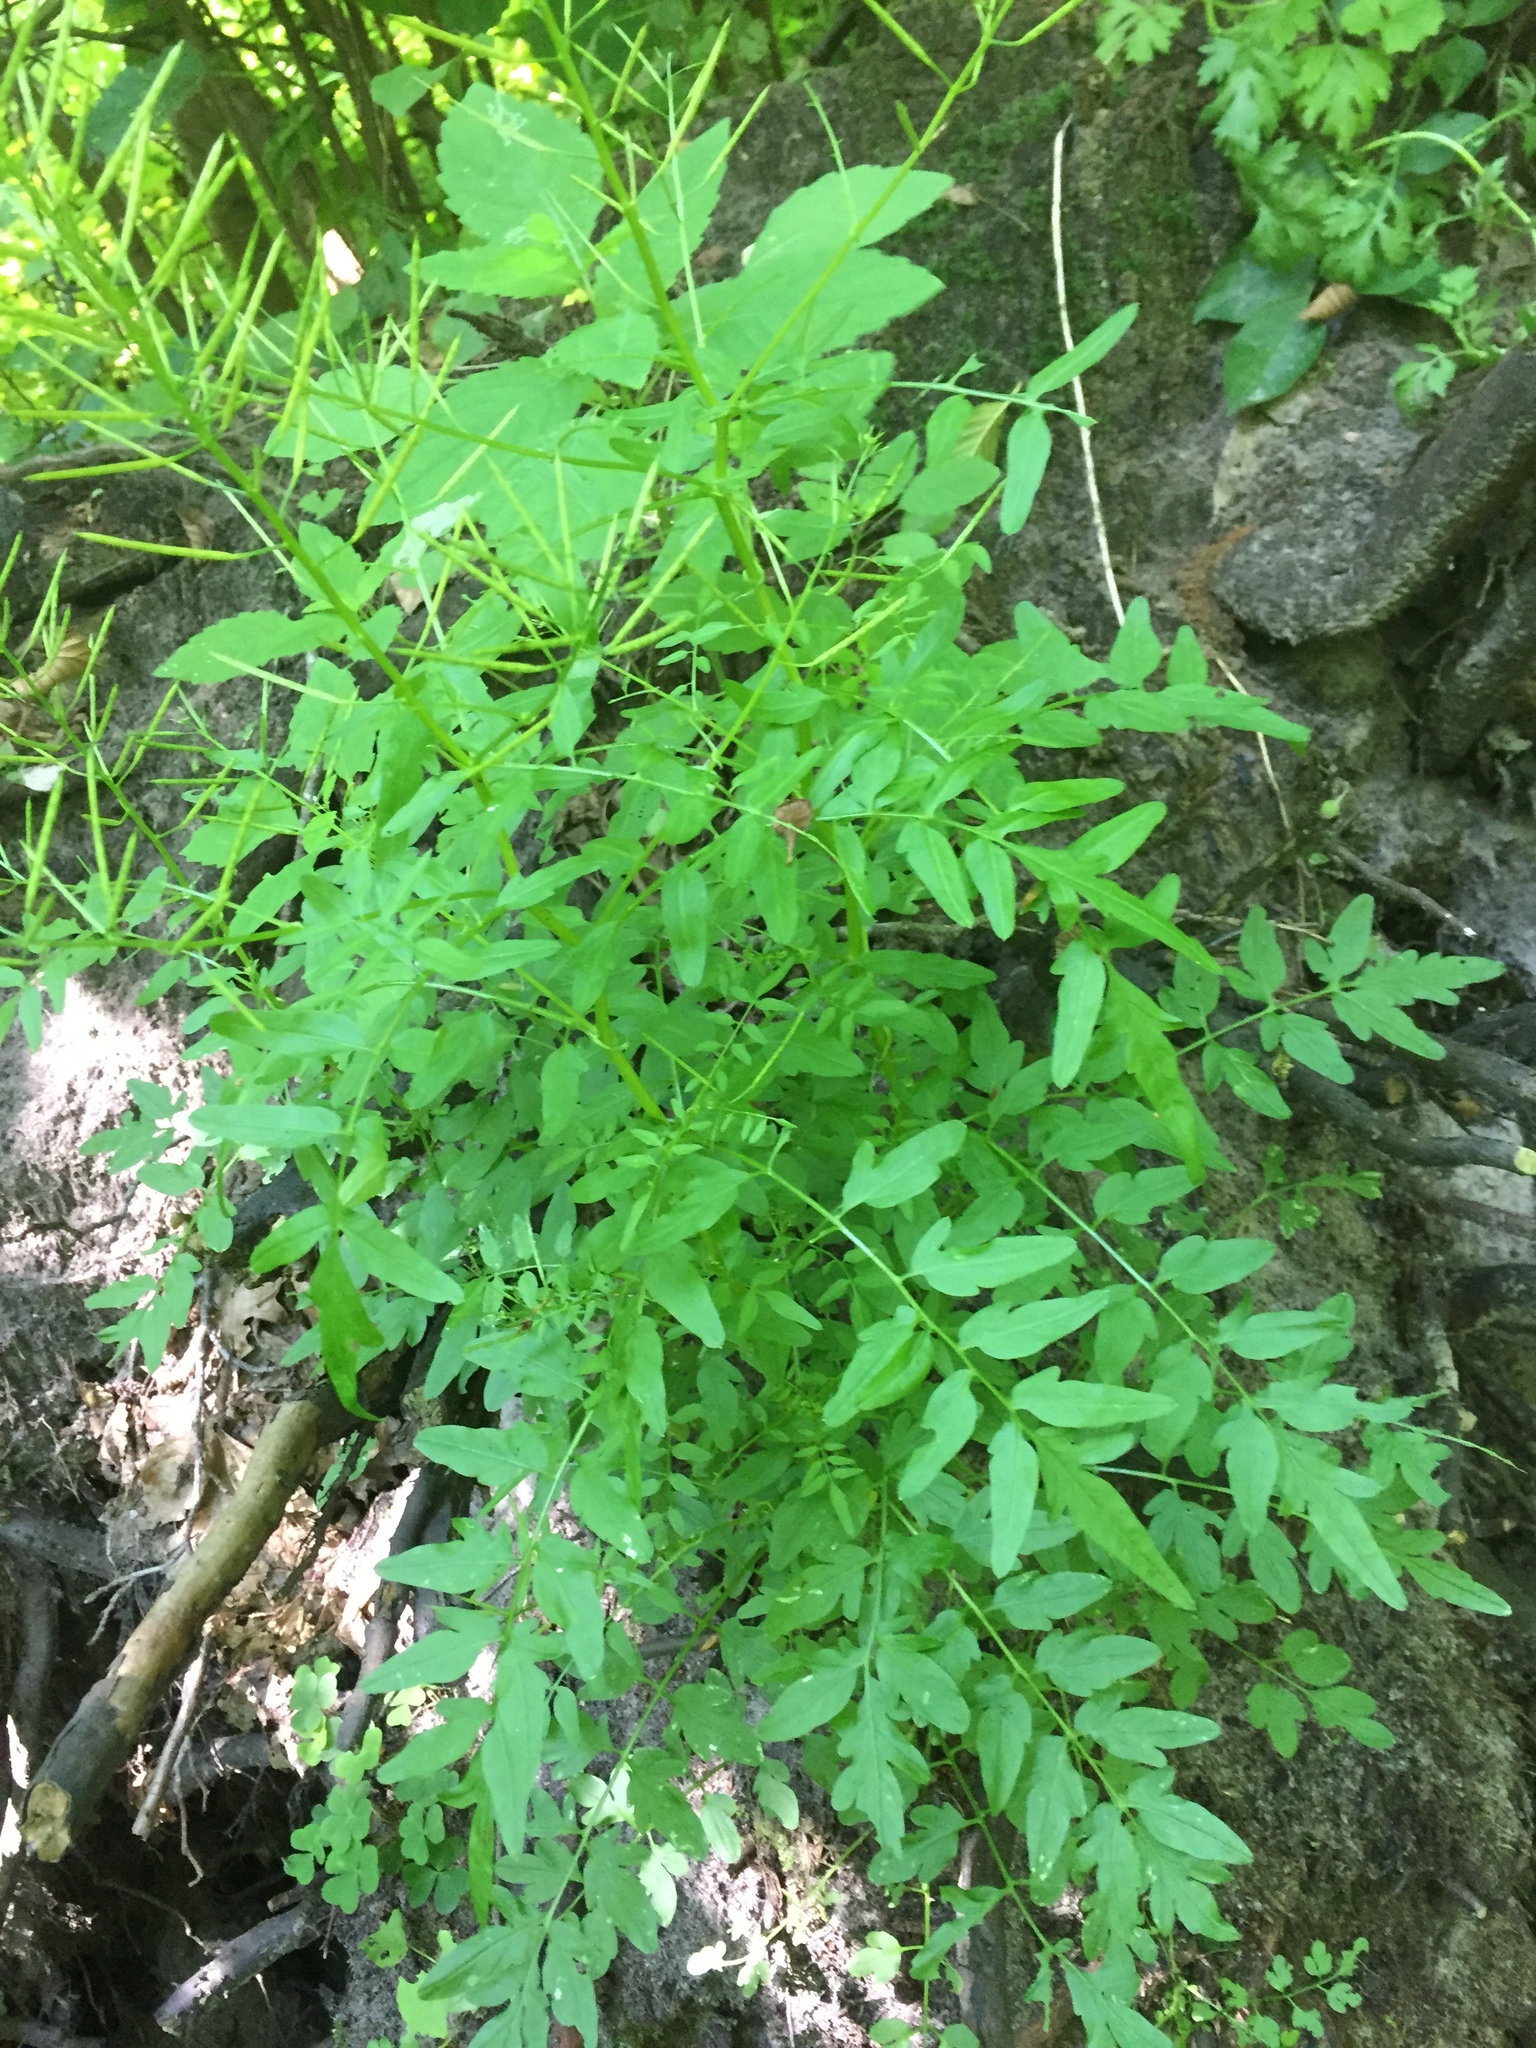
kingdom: Plantae
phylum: Tracheophyta
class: Magnoliopsida
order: Brassicales
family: Brassicaceae
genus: Cardamine
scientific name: Cardamine impatiens
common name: Narrow-leaved bitter-cress
